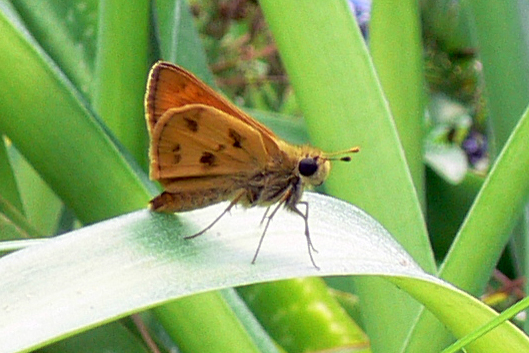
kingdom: Animalia
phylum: Arthropoda
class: Insecta
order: Lepidoptera
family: Hesperiidae
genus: Polites
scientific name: Polites vibex
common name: Whirlabout
